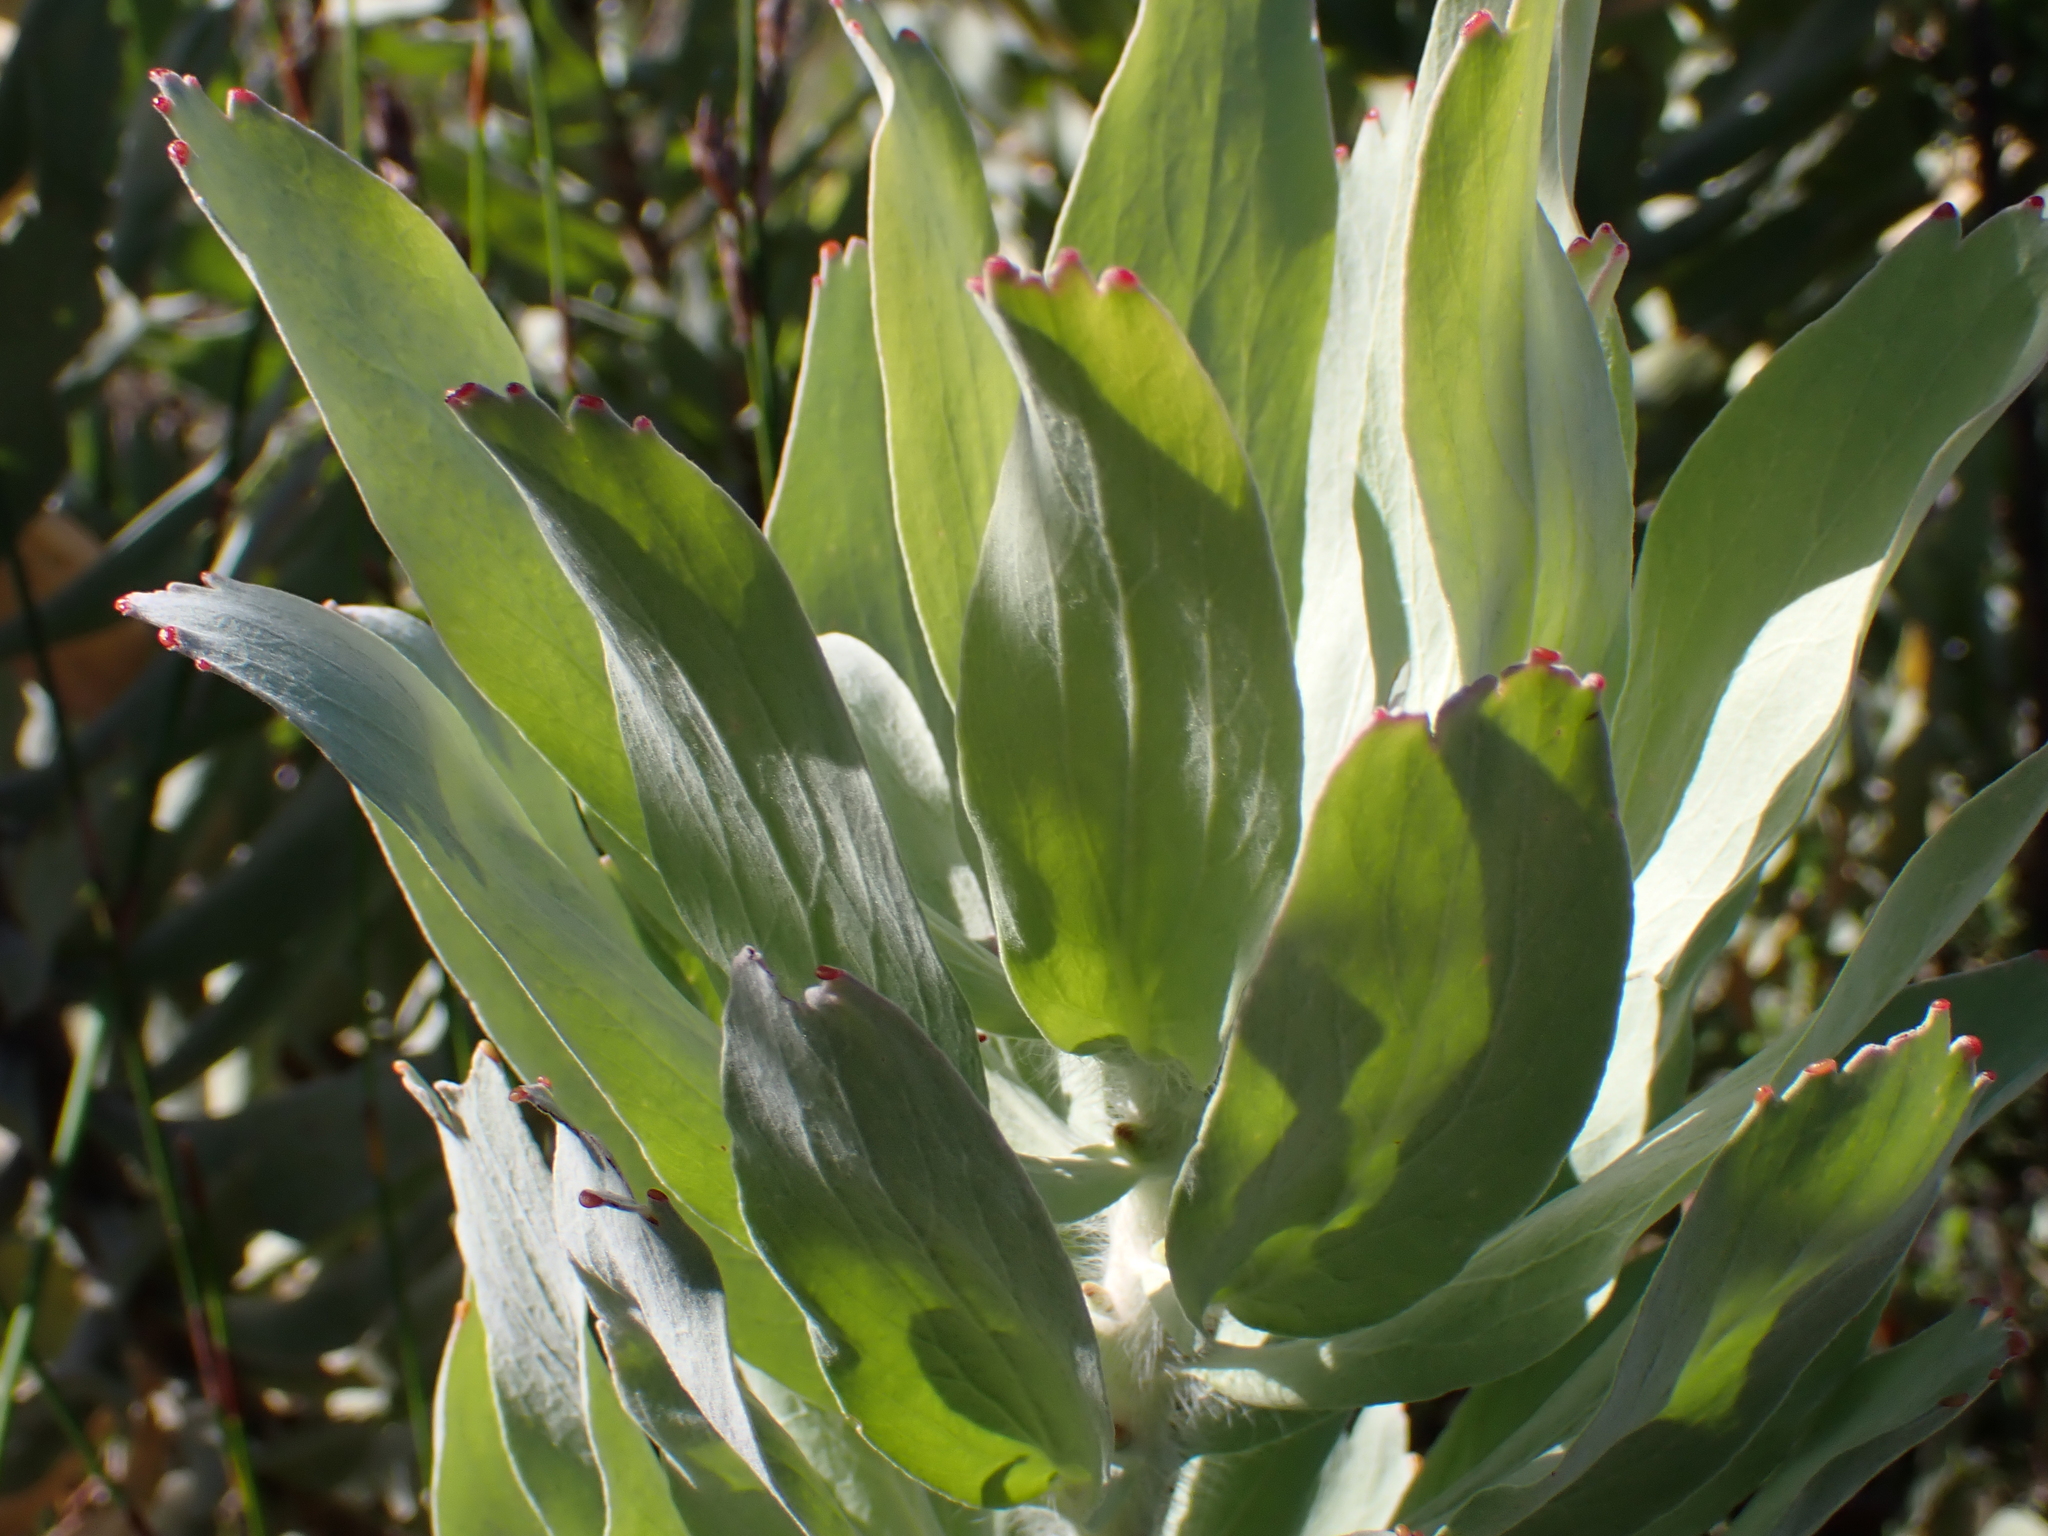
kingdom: Plantae
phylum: Tracheophyta
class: Magnoliopsida
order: Proteales
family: Proteaceae
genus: Leucospermum
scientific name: Leucospermum formosum
